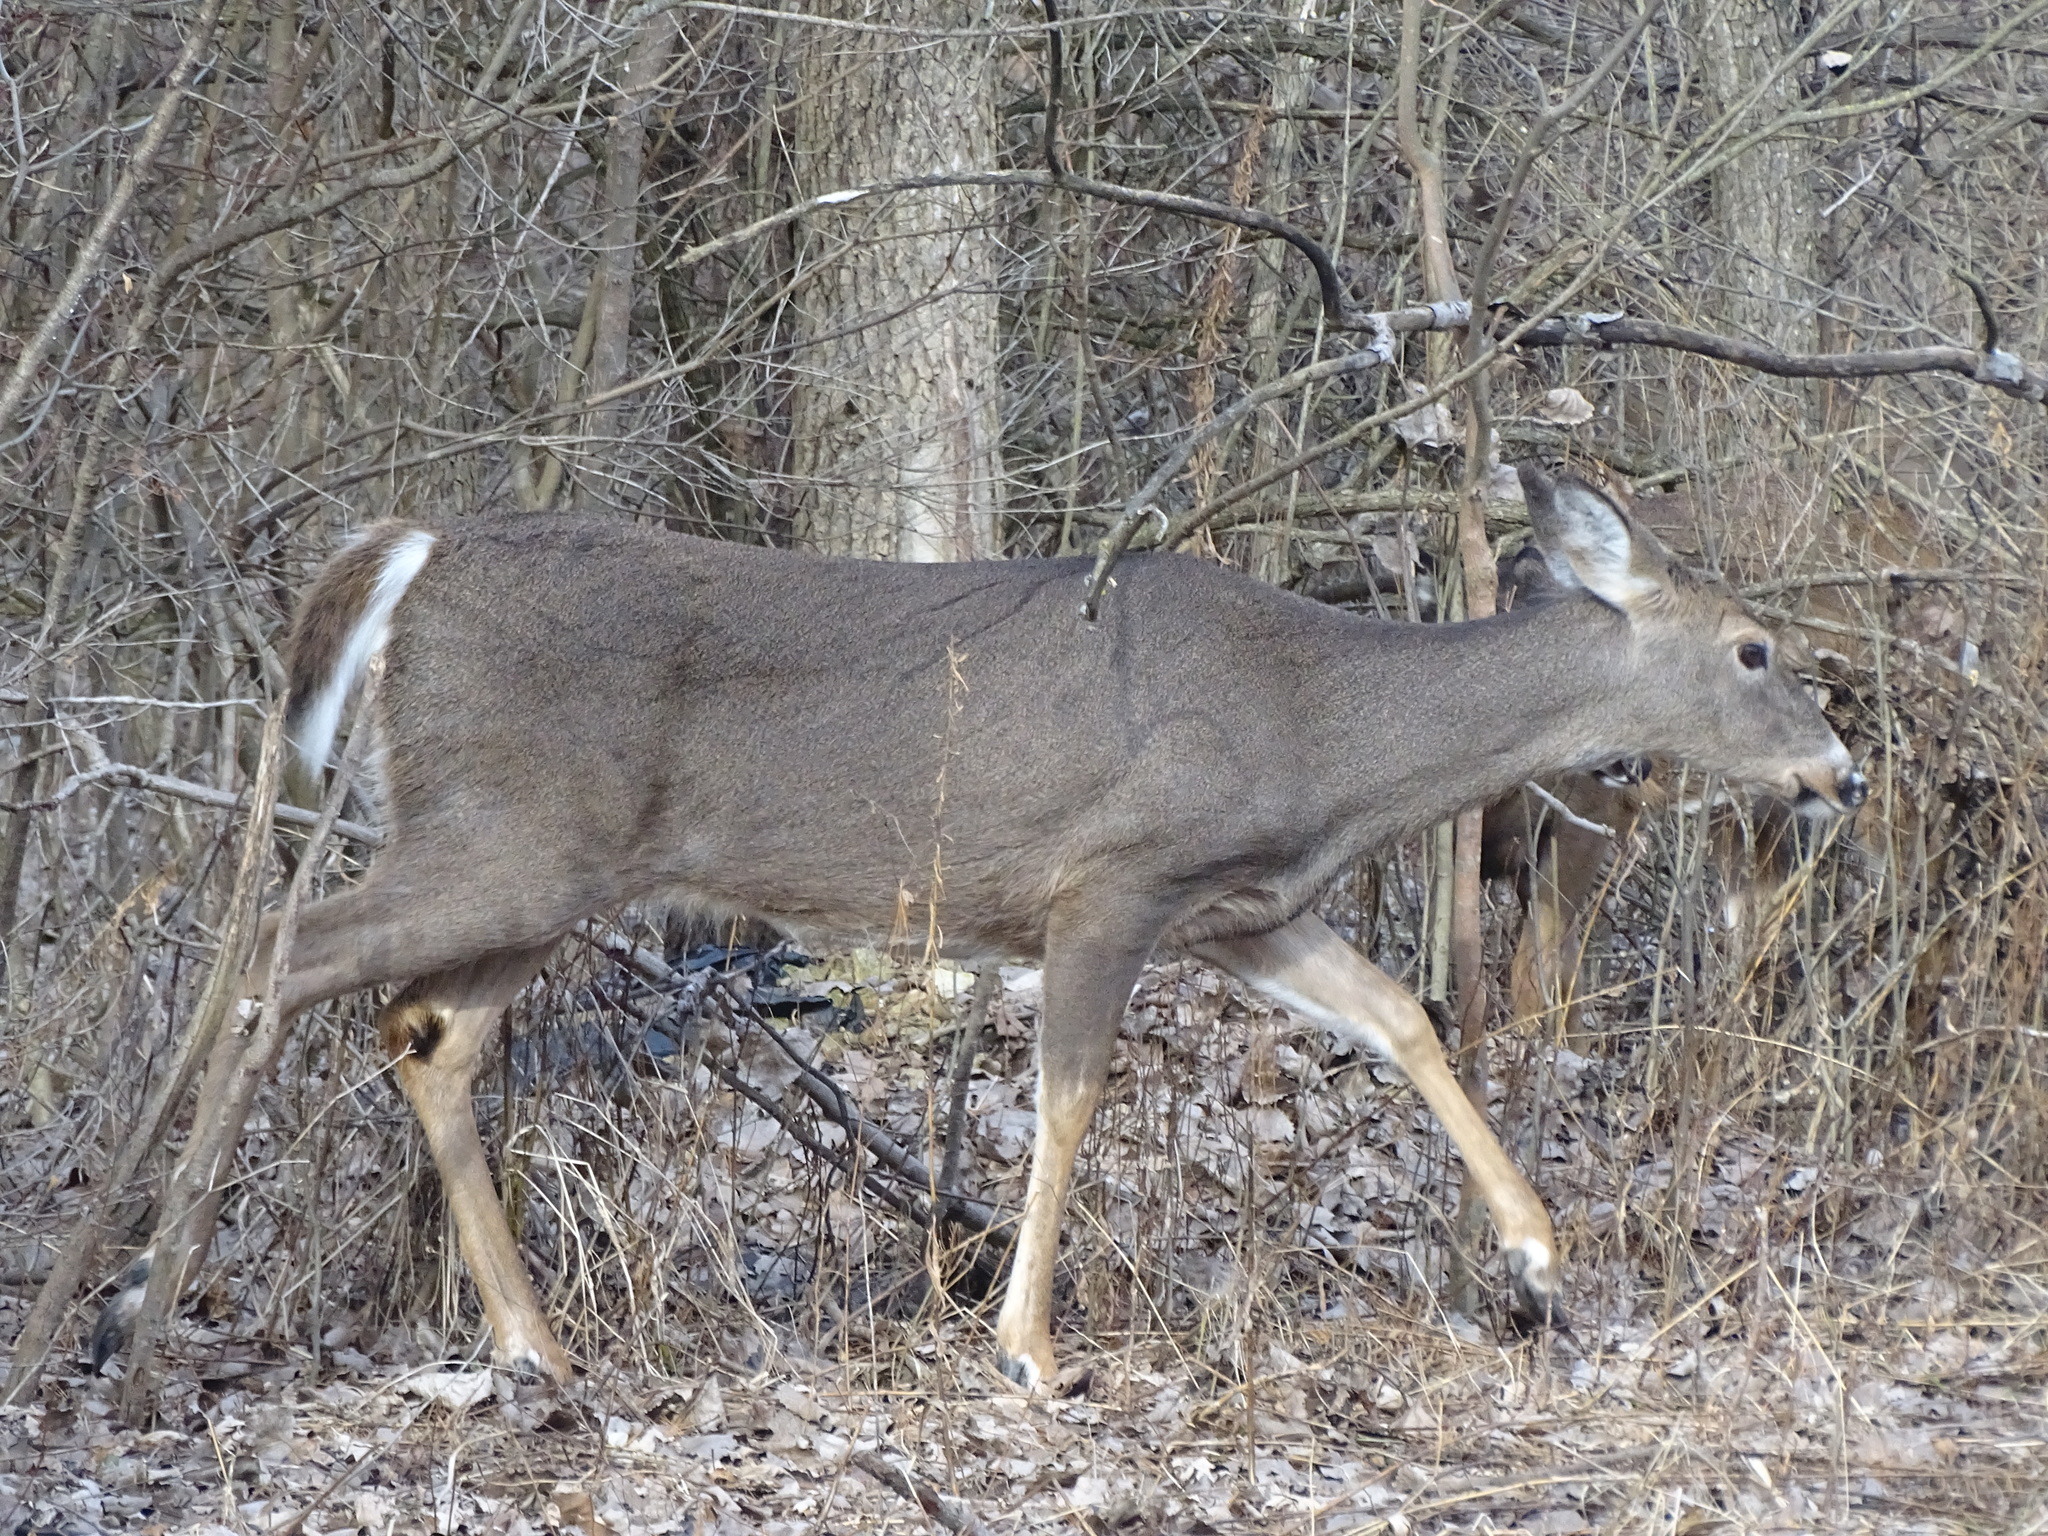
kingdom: Animalia
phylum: Chordata
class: Mammalia
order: Artiodactyla
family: Cervidae
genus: Odocoileus
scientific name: Odocoileus virginianus
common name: White-tailed deer
